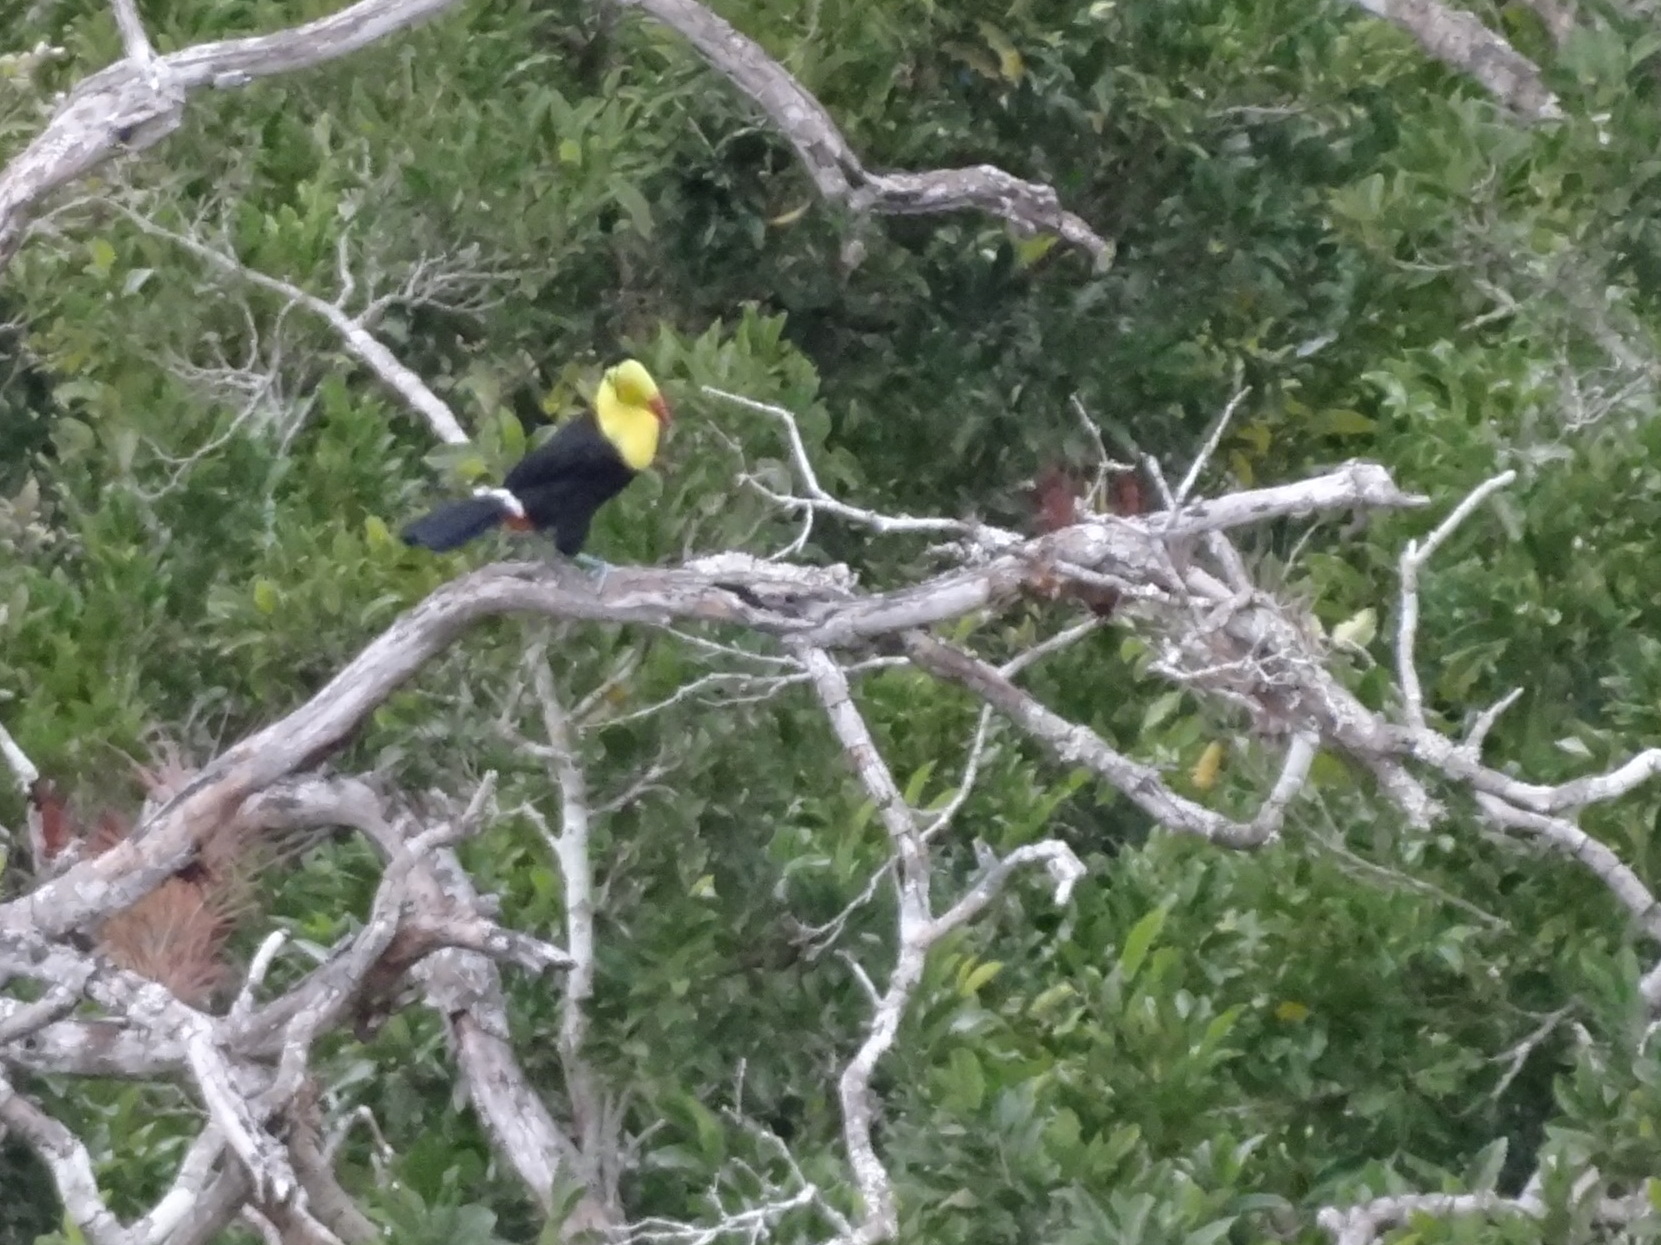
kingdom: Animalia
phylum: Chordata
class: Aves
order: Piciformes
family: Ramphastidae
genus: Ramphastos
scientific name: Ramphastos sulfuratus
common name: Keel-billed toucan
